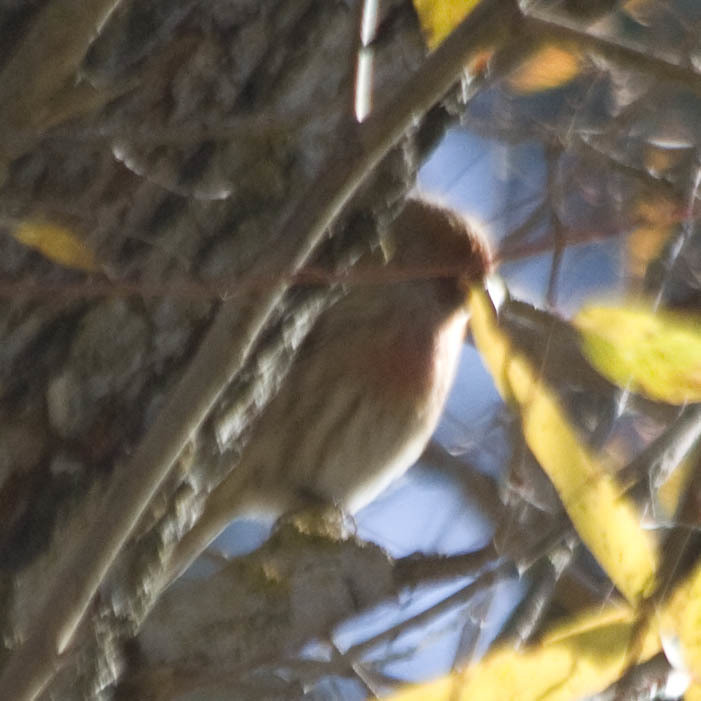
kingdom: Animalia
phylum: Chordata
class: Aves
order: Passeriformes
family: Fringillidae
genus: Haemorhous
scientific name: Haemorhous mexicanus
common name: House finch
